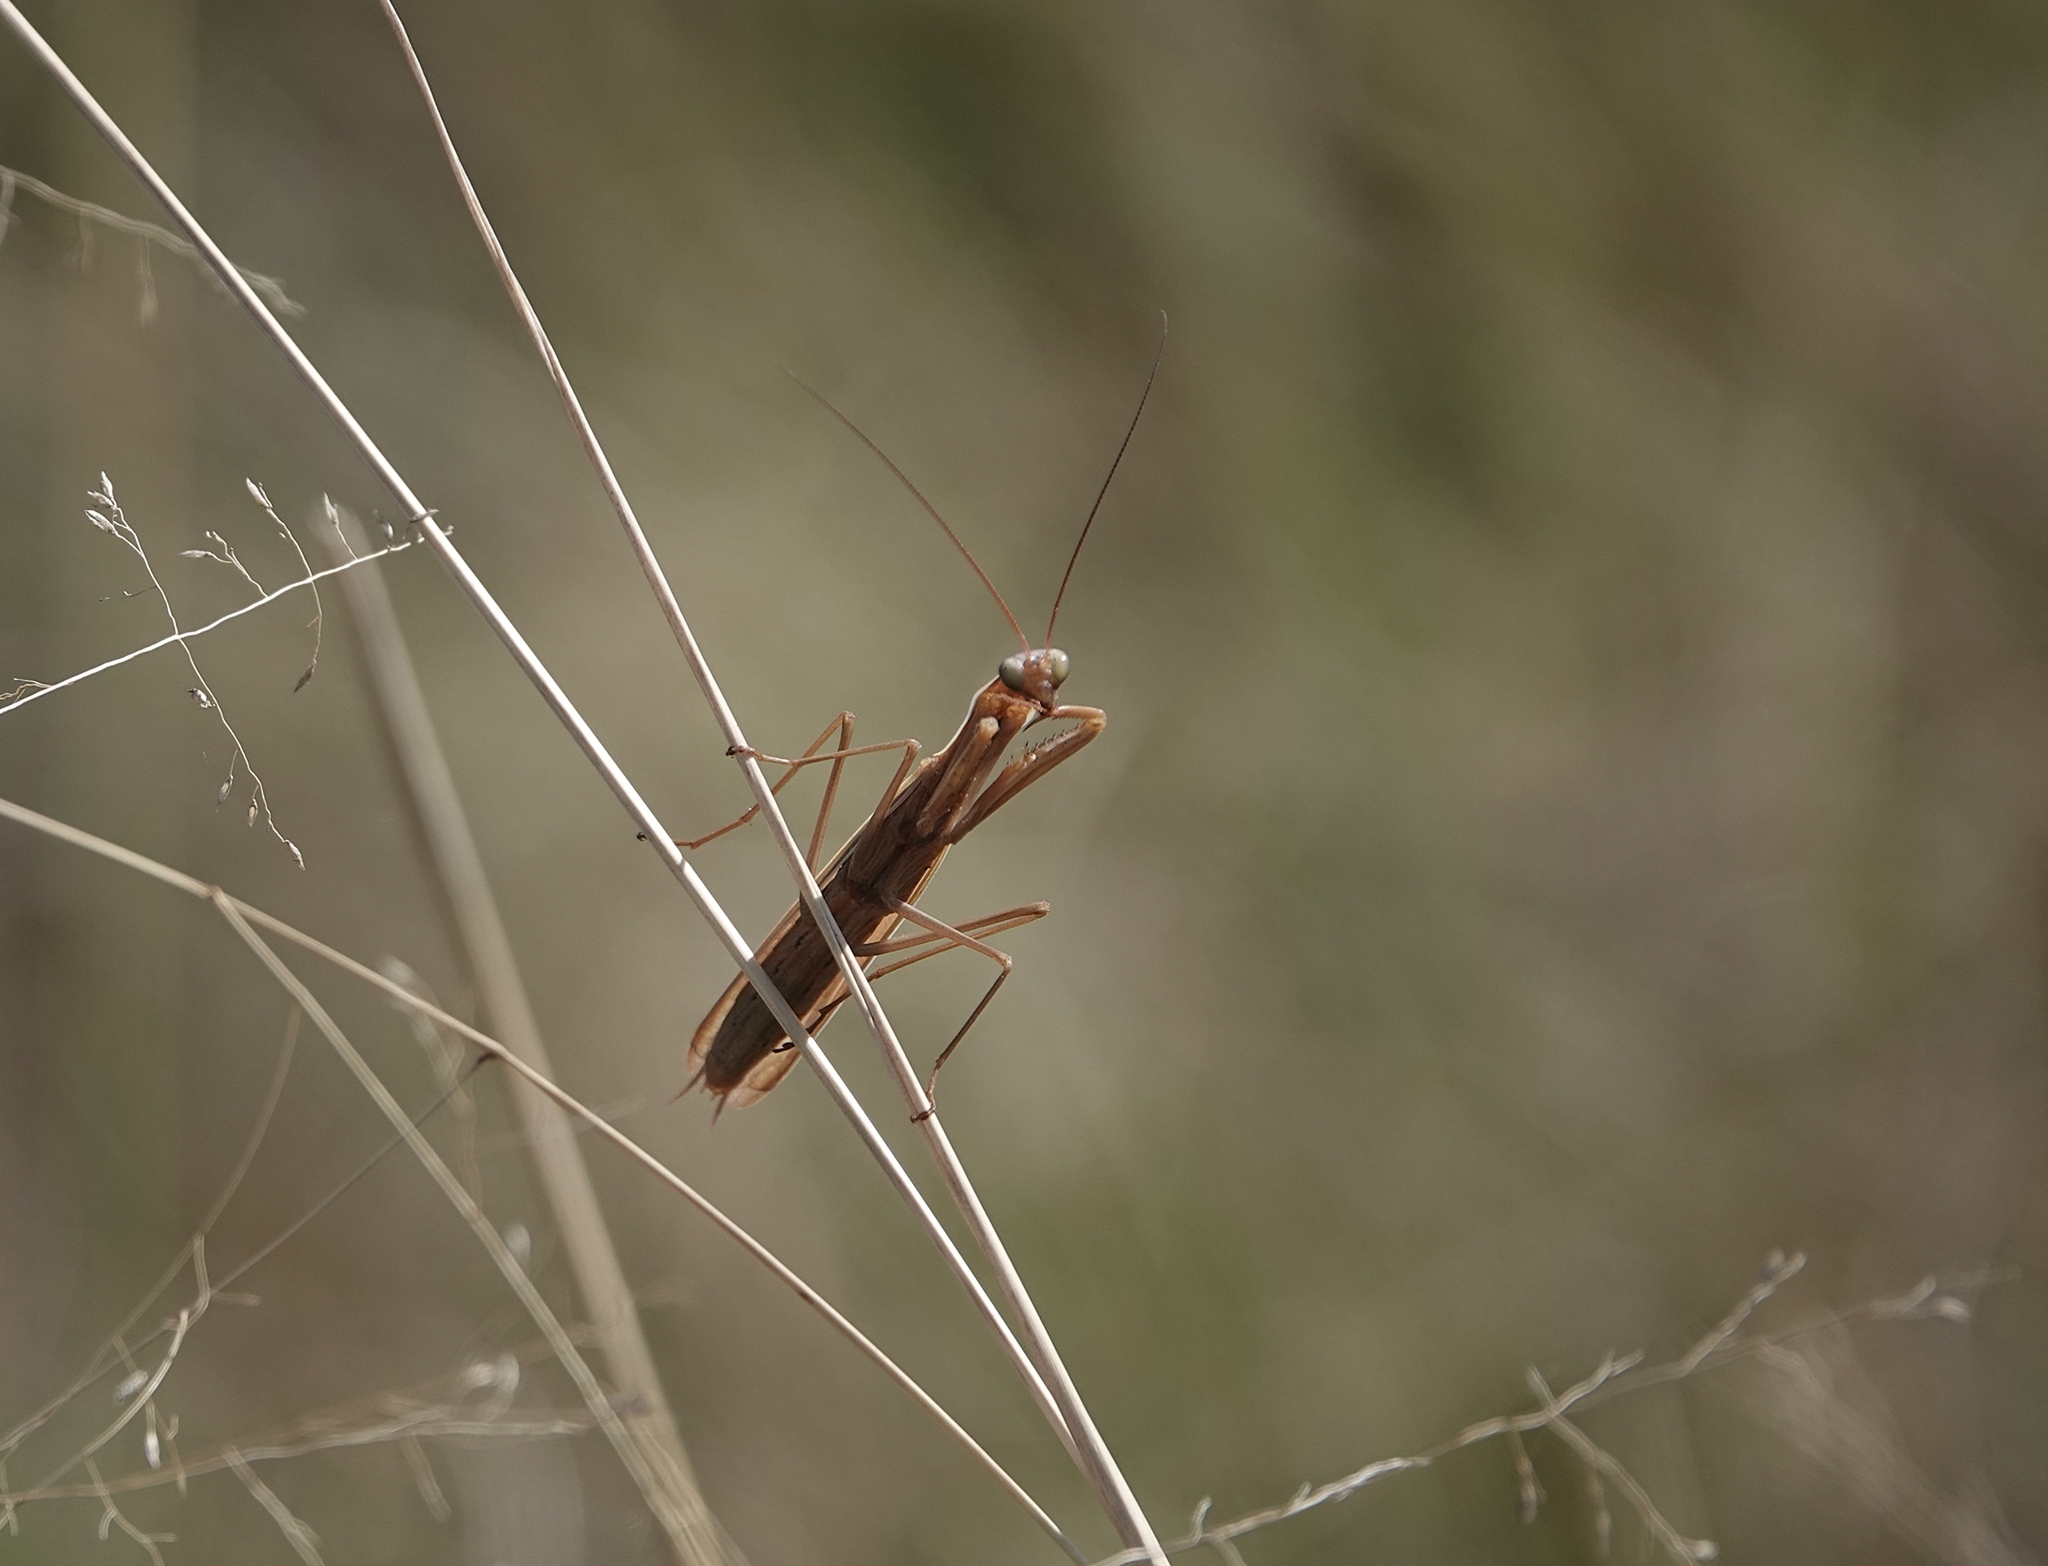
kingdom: Animalia
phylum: Arthropoda
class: Insecta
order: Mantodea
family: Mantidae
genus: Mantis
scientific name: Mantis religiosa
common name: Praying mantis
